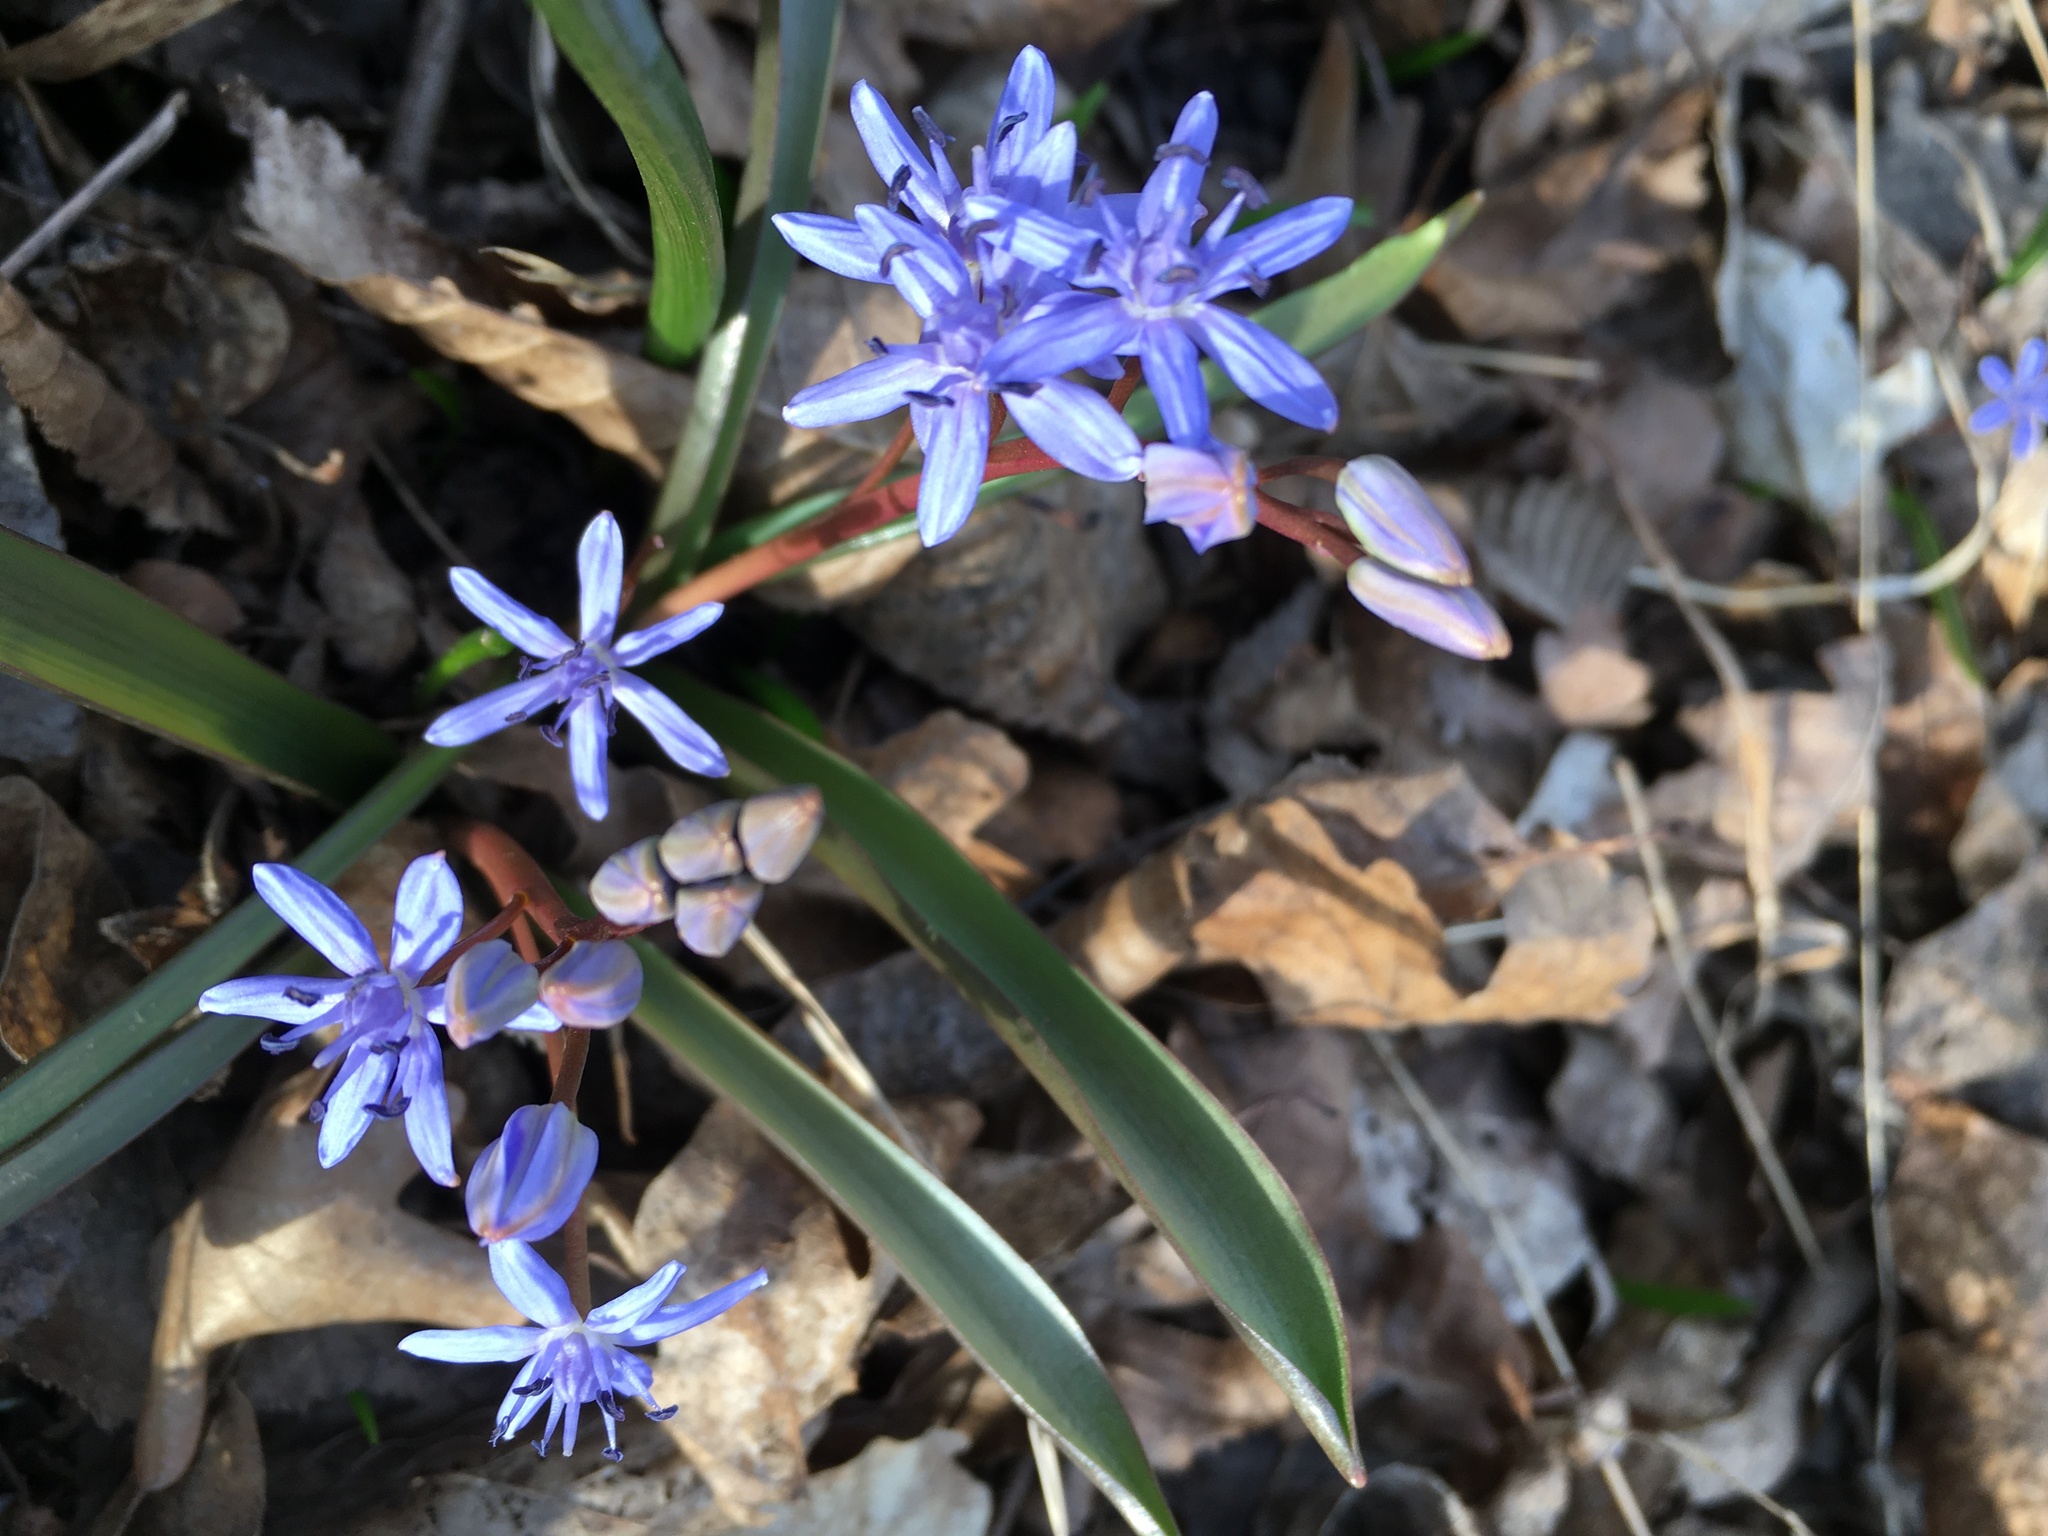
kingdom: Plantae
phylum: Tracheophyta
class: Liliopsida
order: Asparagales
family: Asparagaceae
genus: Scilla
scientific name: Scilla vindobonensis
